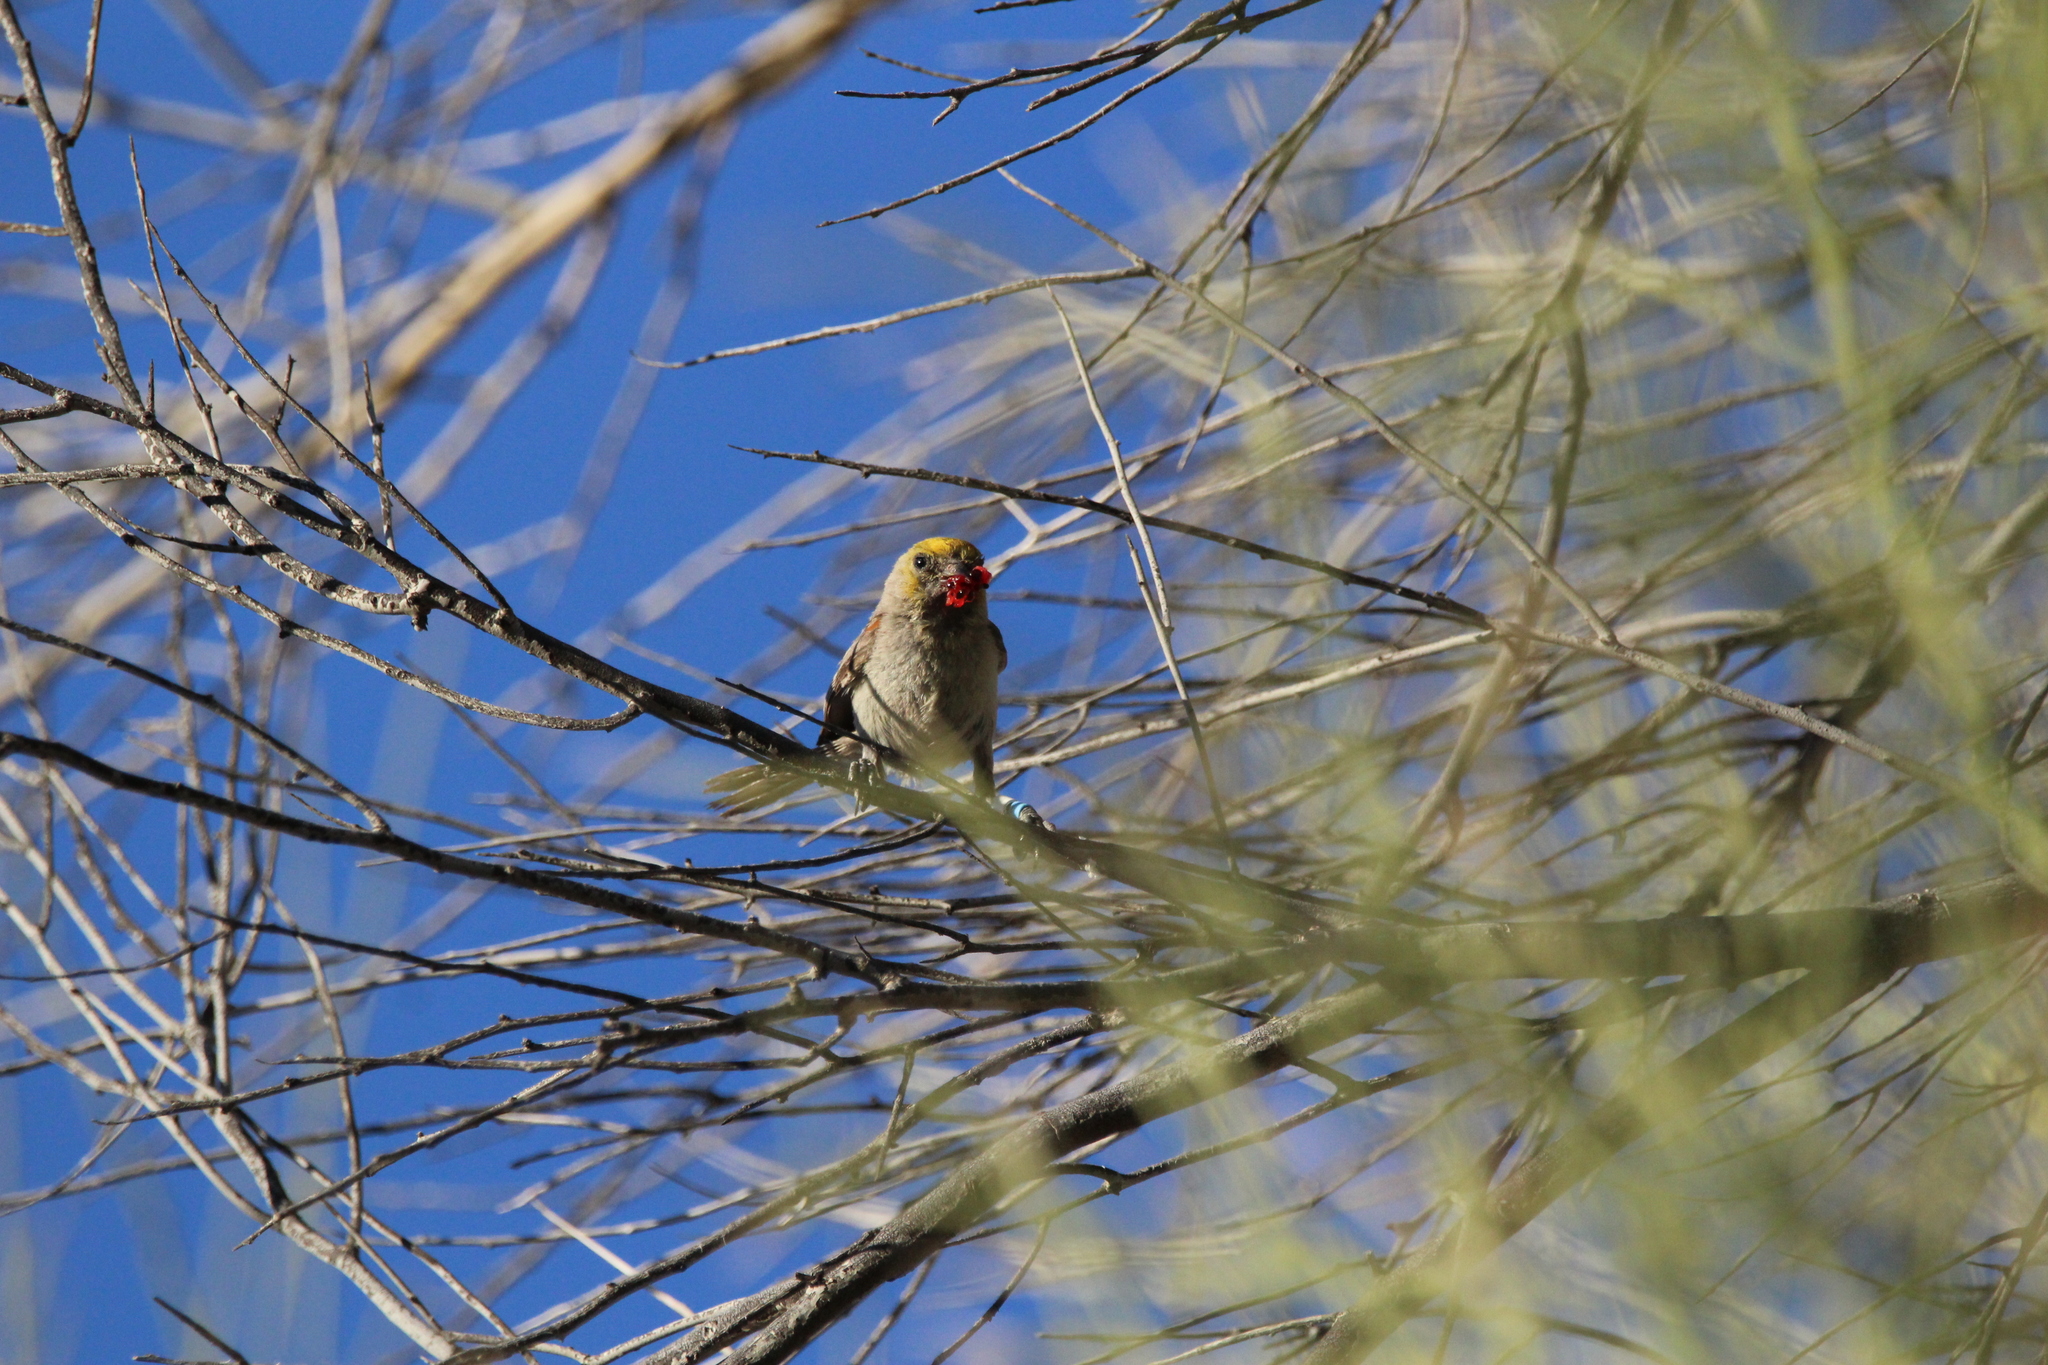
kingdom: Animalia
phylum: Chordata
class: Aves
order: Passeriformes
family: Remizidae
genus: Auriparus
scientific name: Auriparus flaviceps
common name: Verdin
